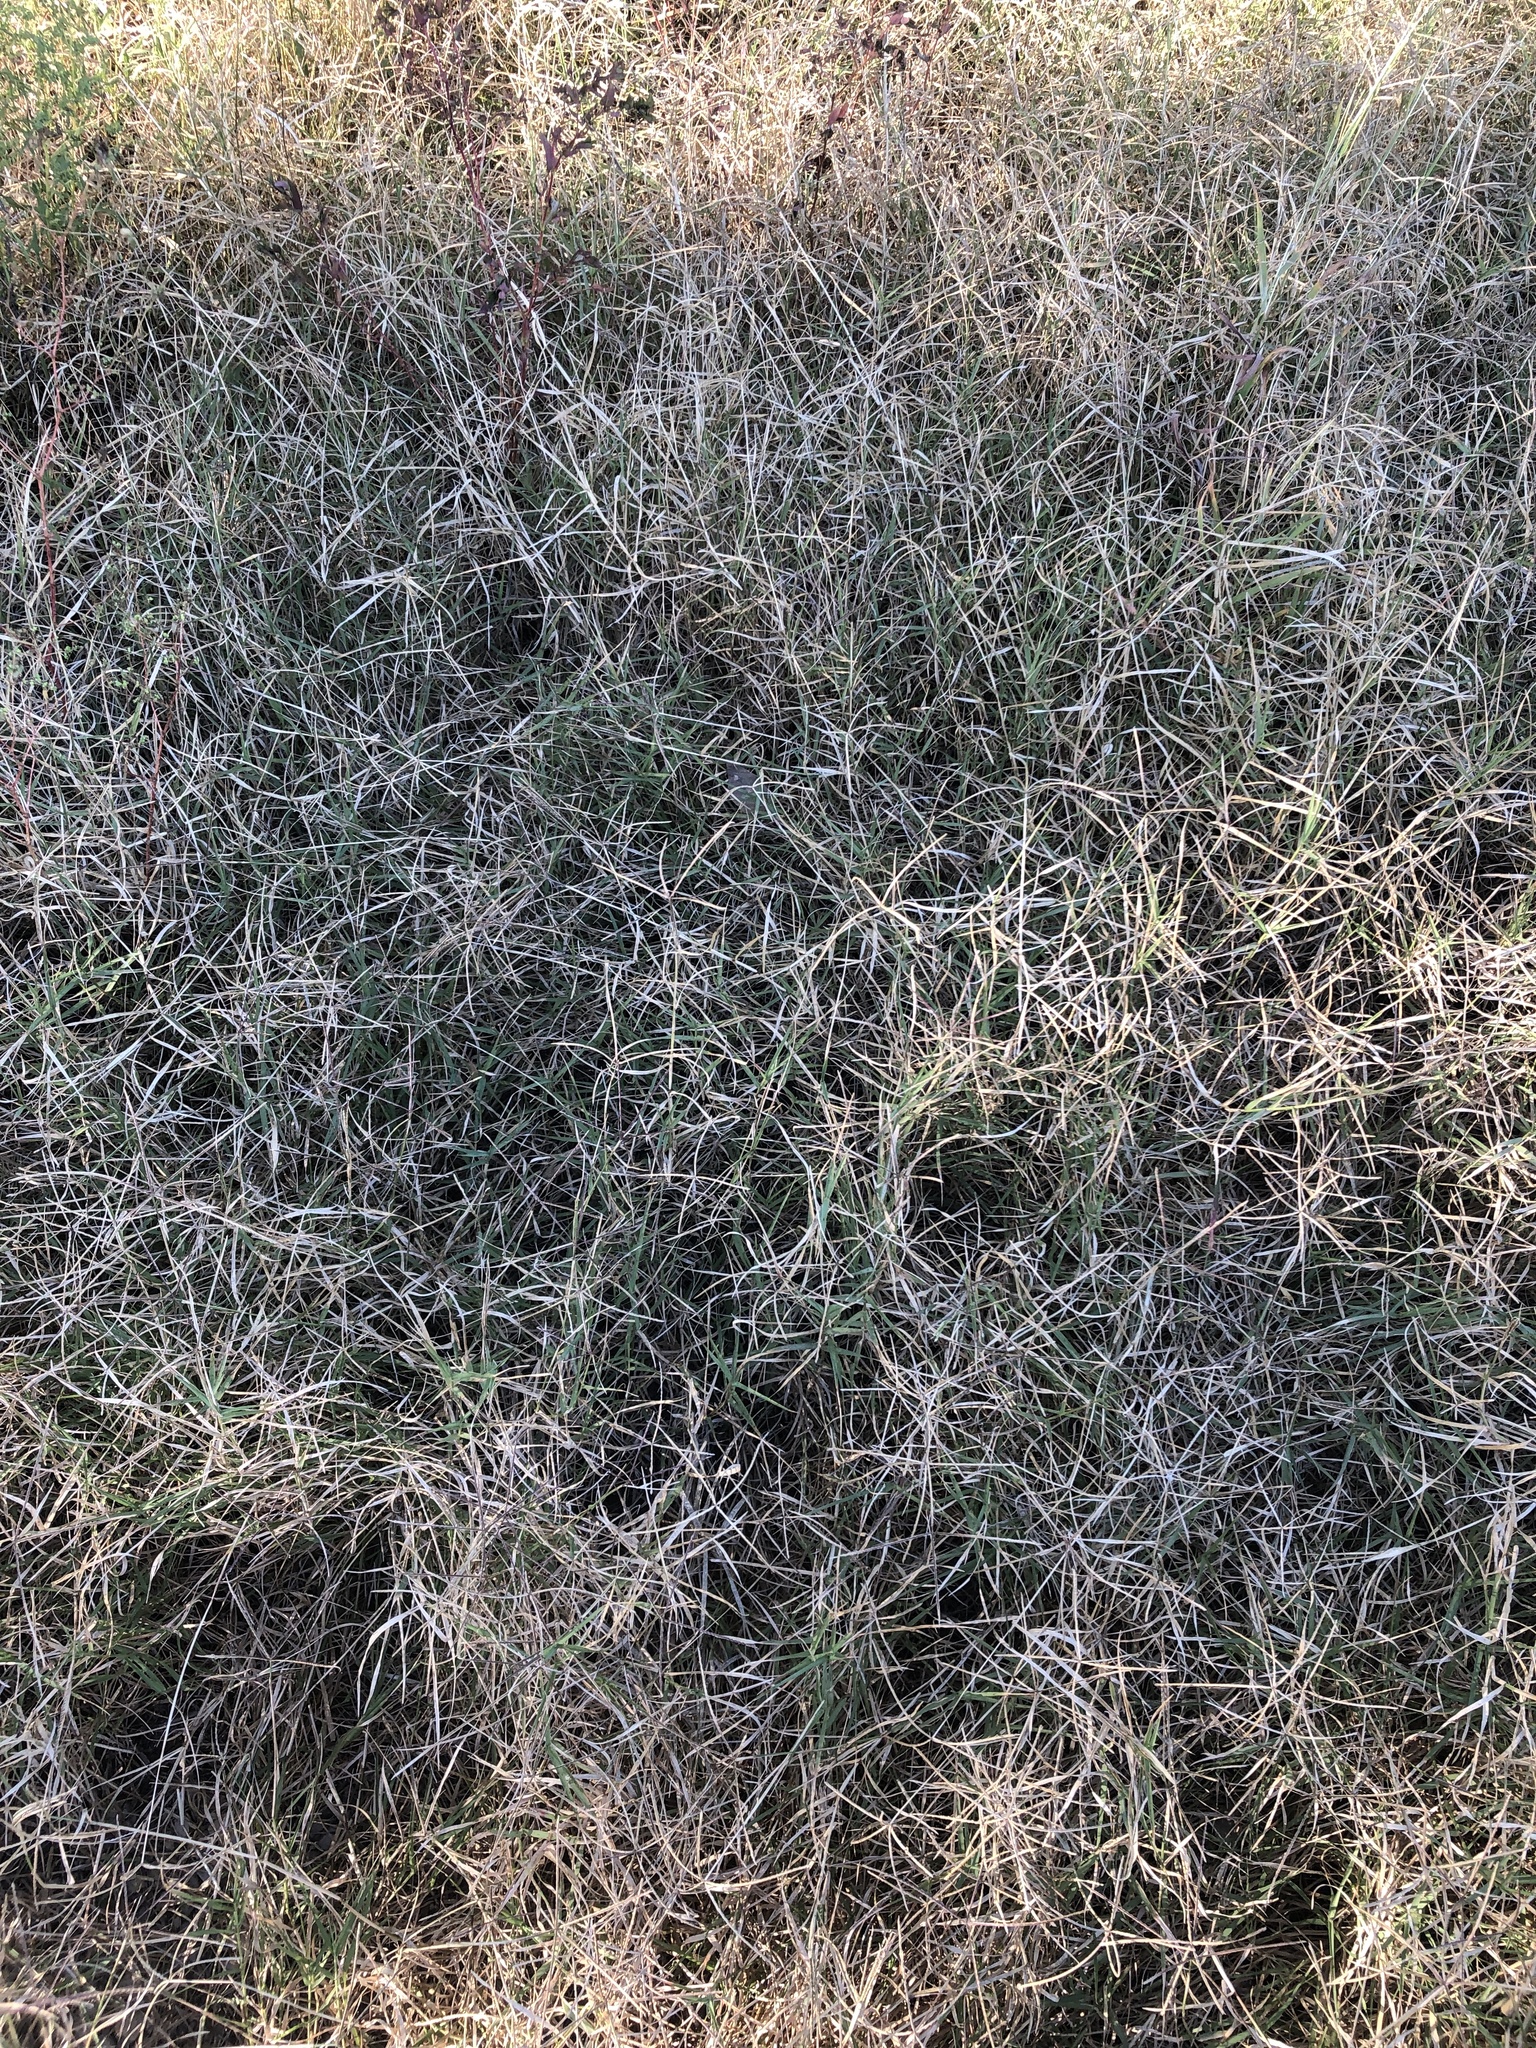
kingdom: Plantae
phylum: Tracheophyta
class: Liliopsida
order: Poales
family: Poaceae
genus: Cynodon
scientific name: Cynodon dactylon
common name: Bermuda grass
